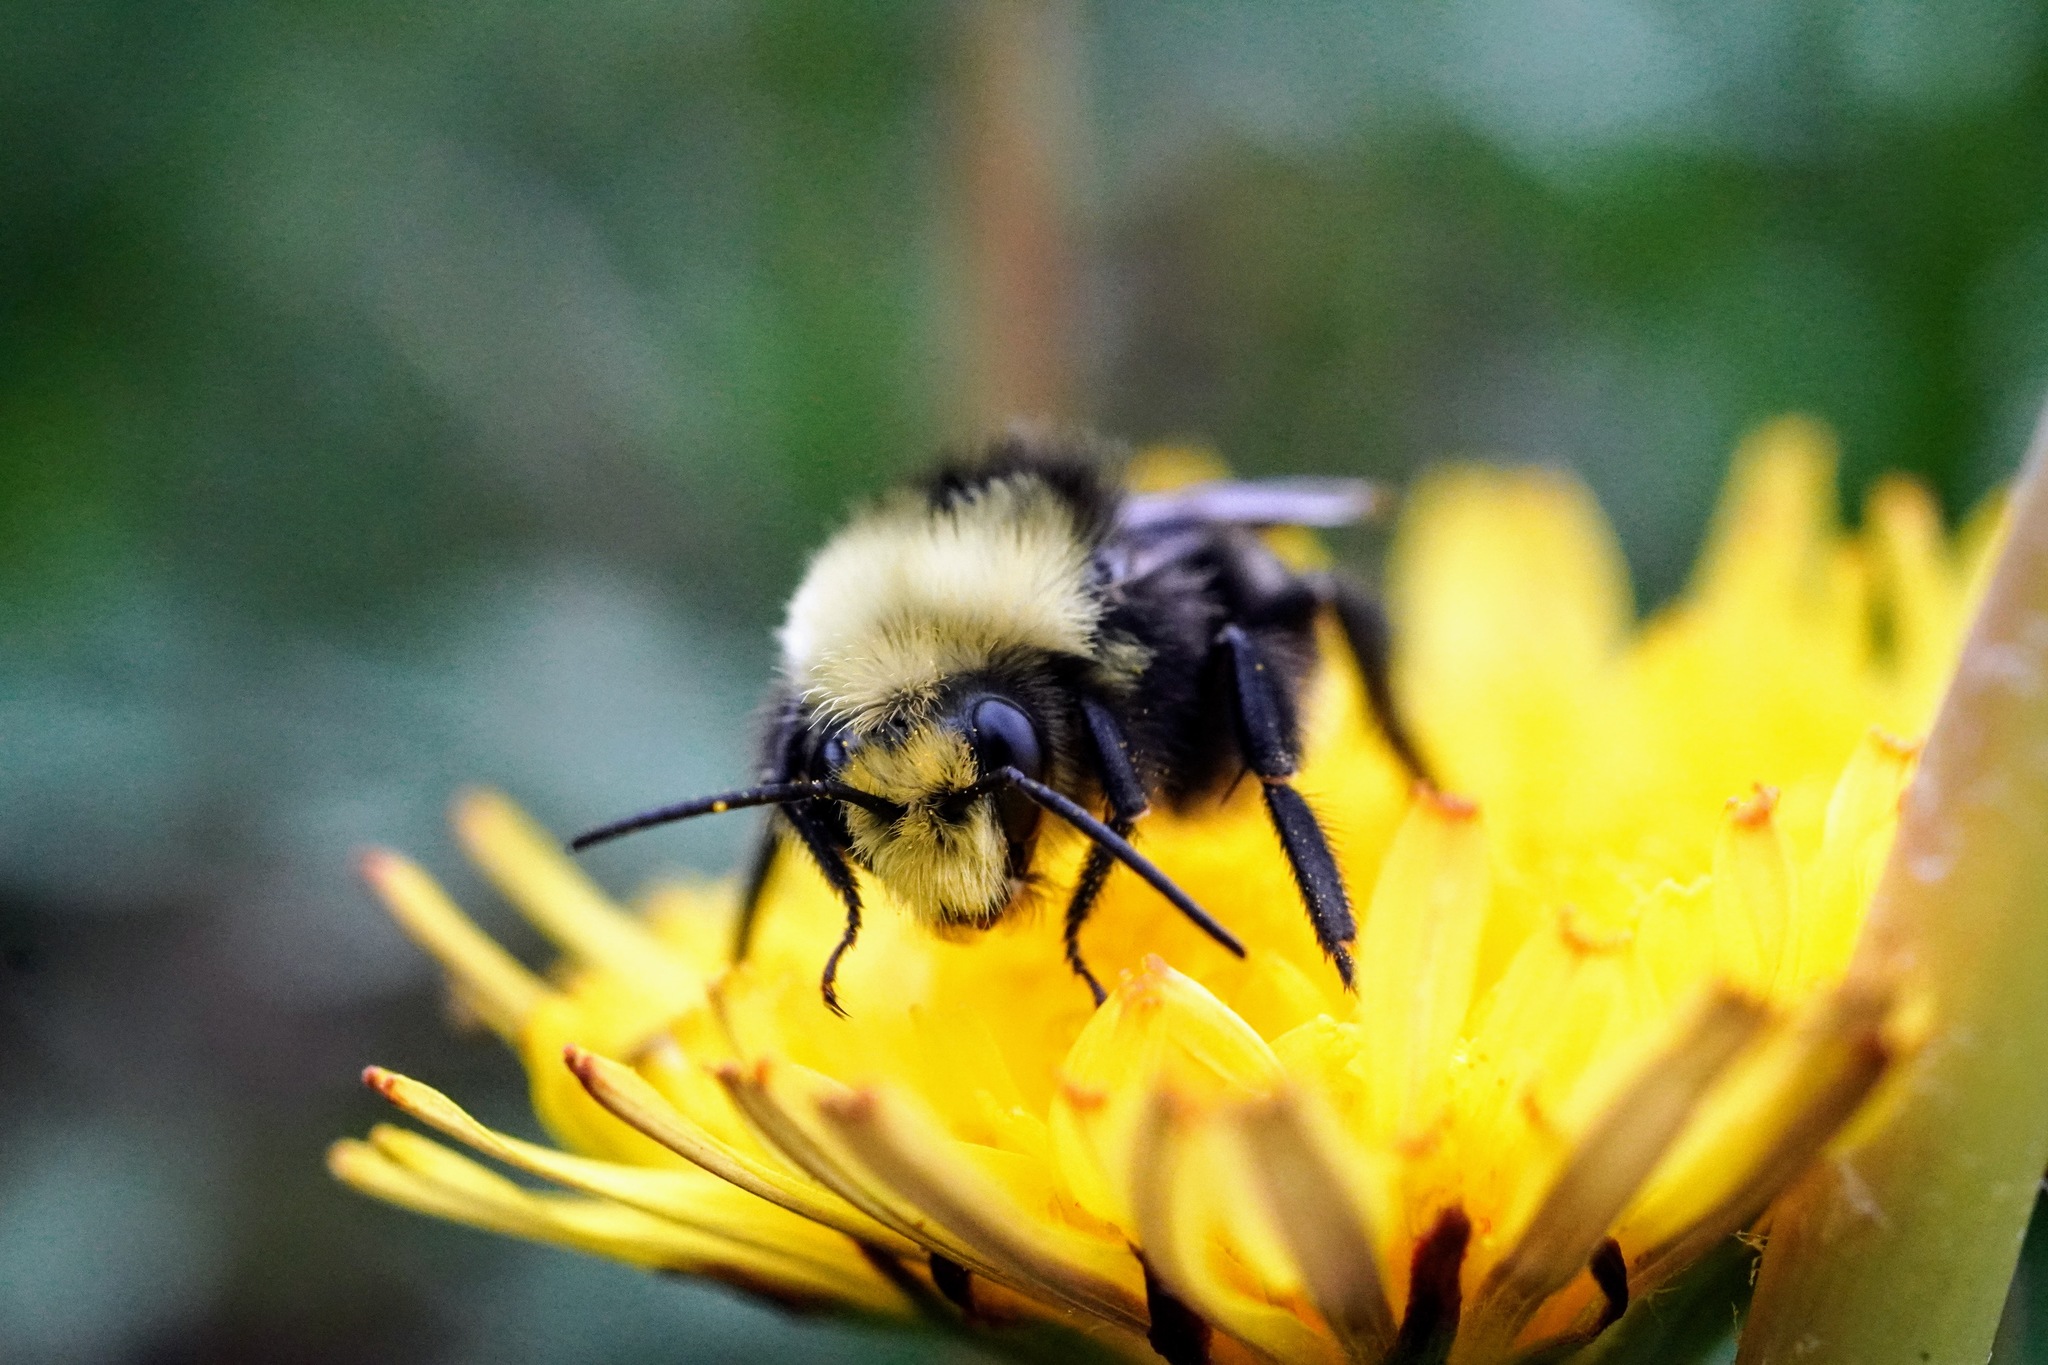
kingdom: Animalia
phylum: Arthropoda
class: Insecta
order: Hymenoptera
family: Apidae
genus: Bombus
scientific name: Bombus vosnesenskii
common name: Vosnesensky bumble bee
